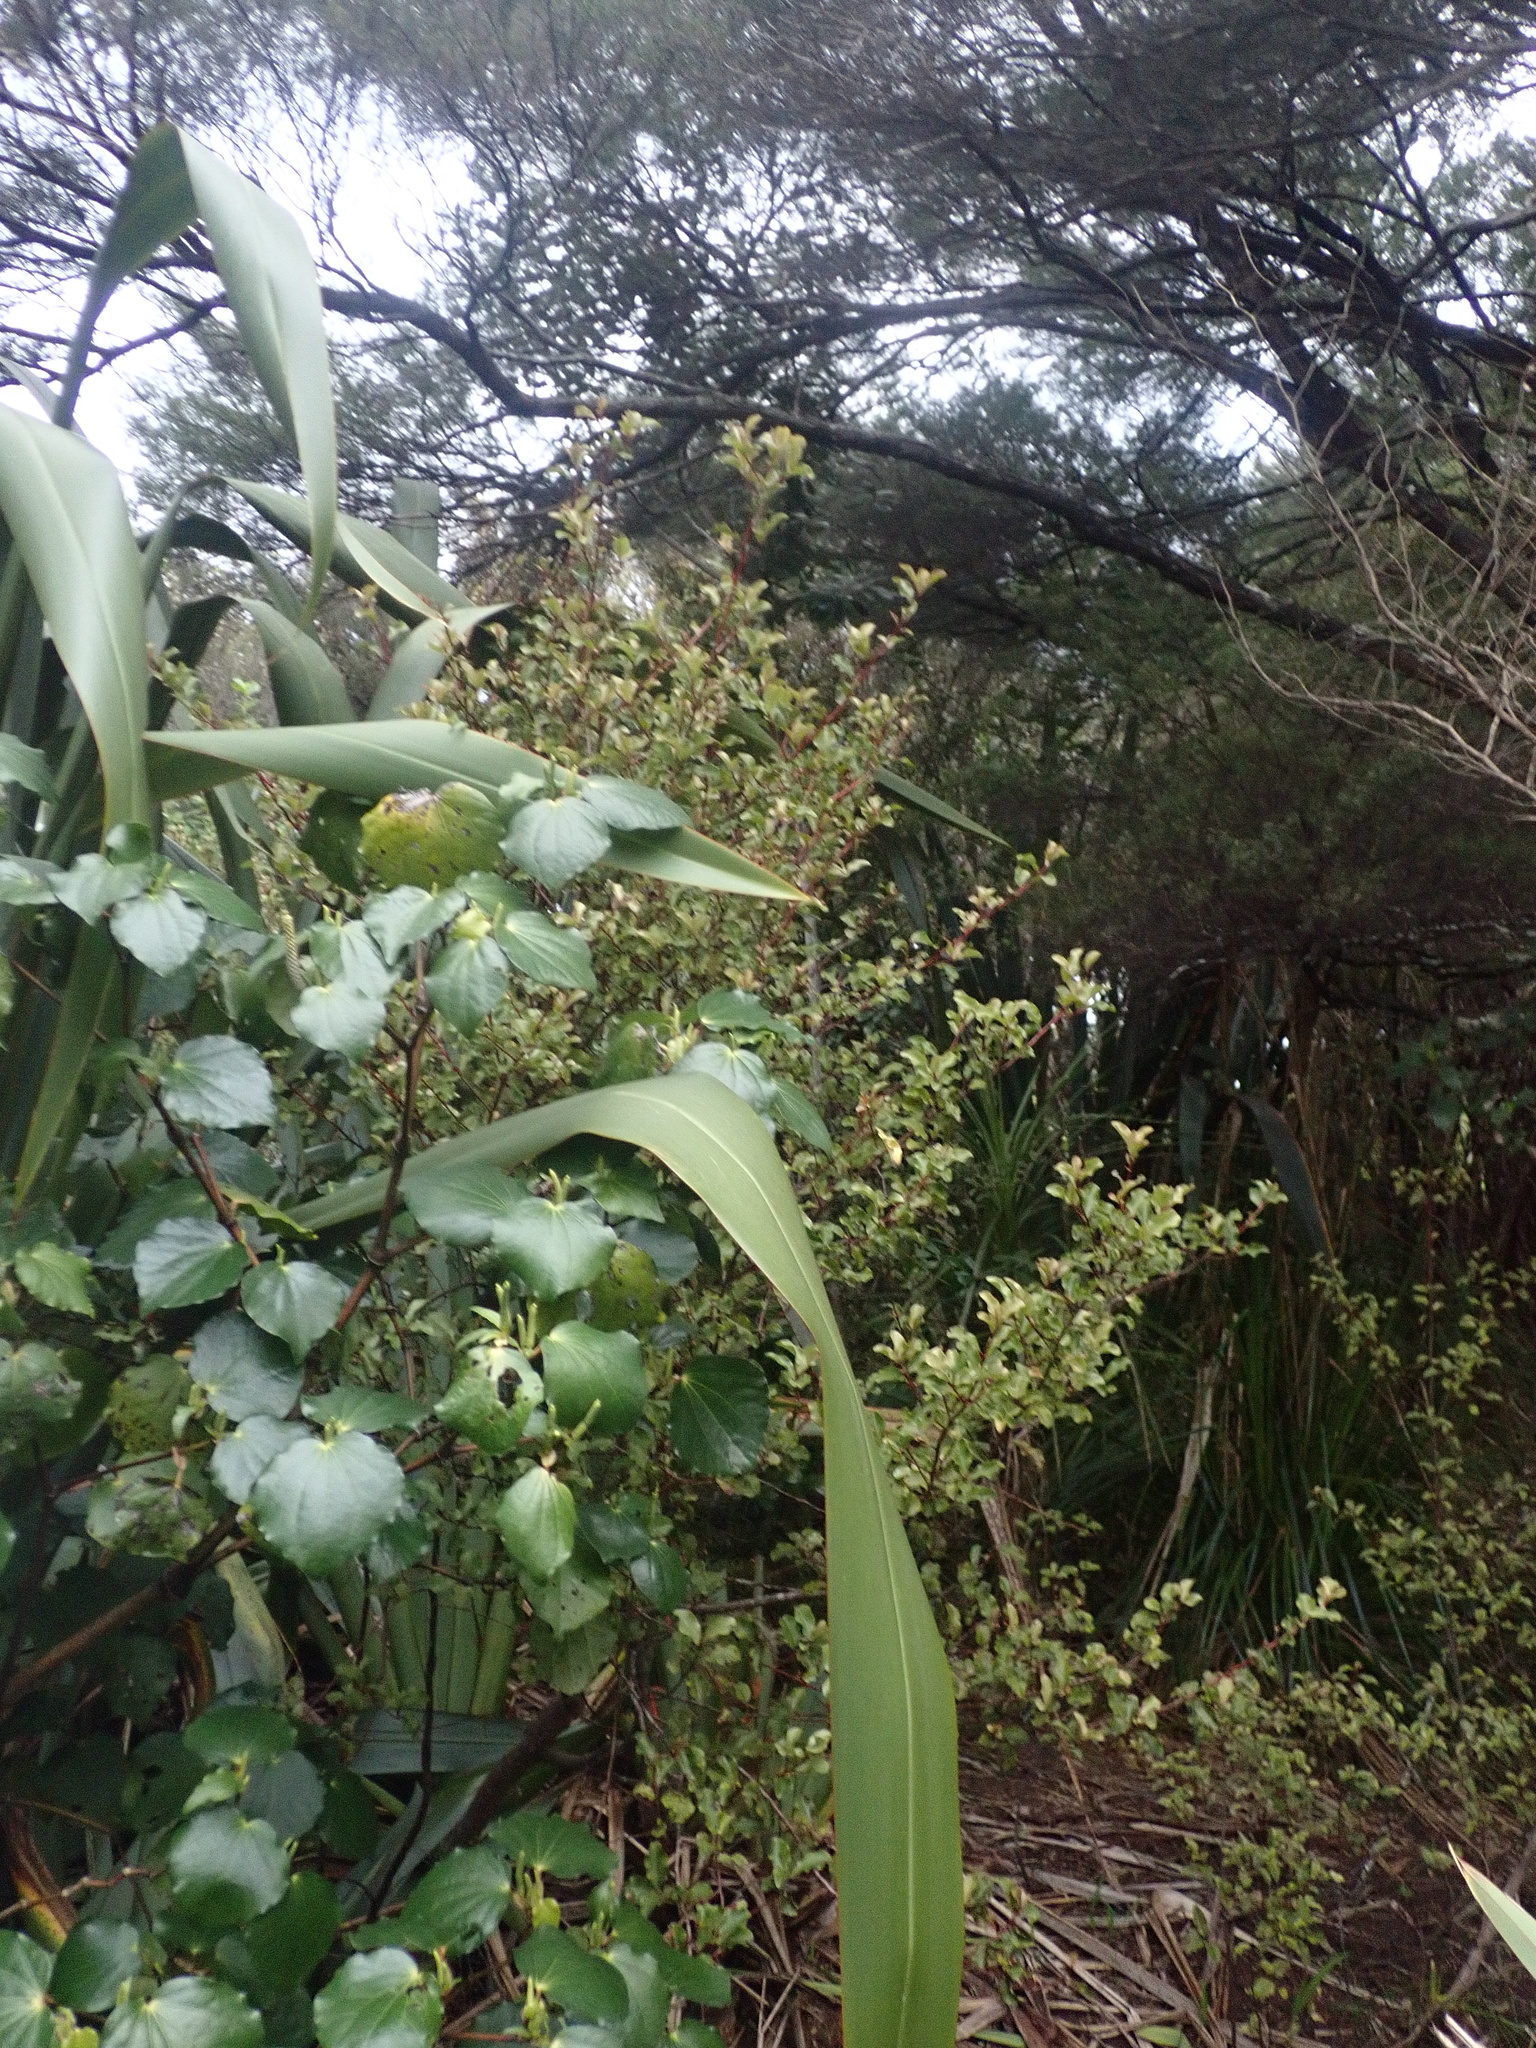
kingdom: Plantae
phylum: Tracheophyta
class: Magnoliopsida
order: Piperales
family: Piperaceae
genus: Macropiper
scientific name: Macropiper excelsum
